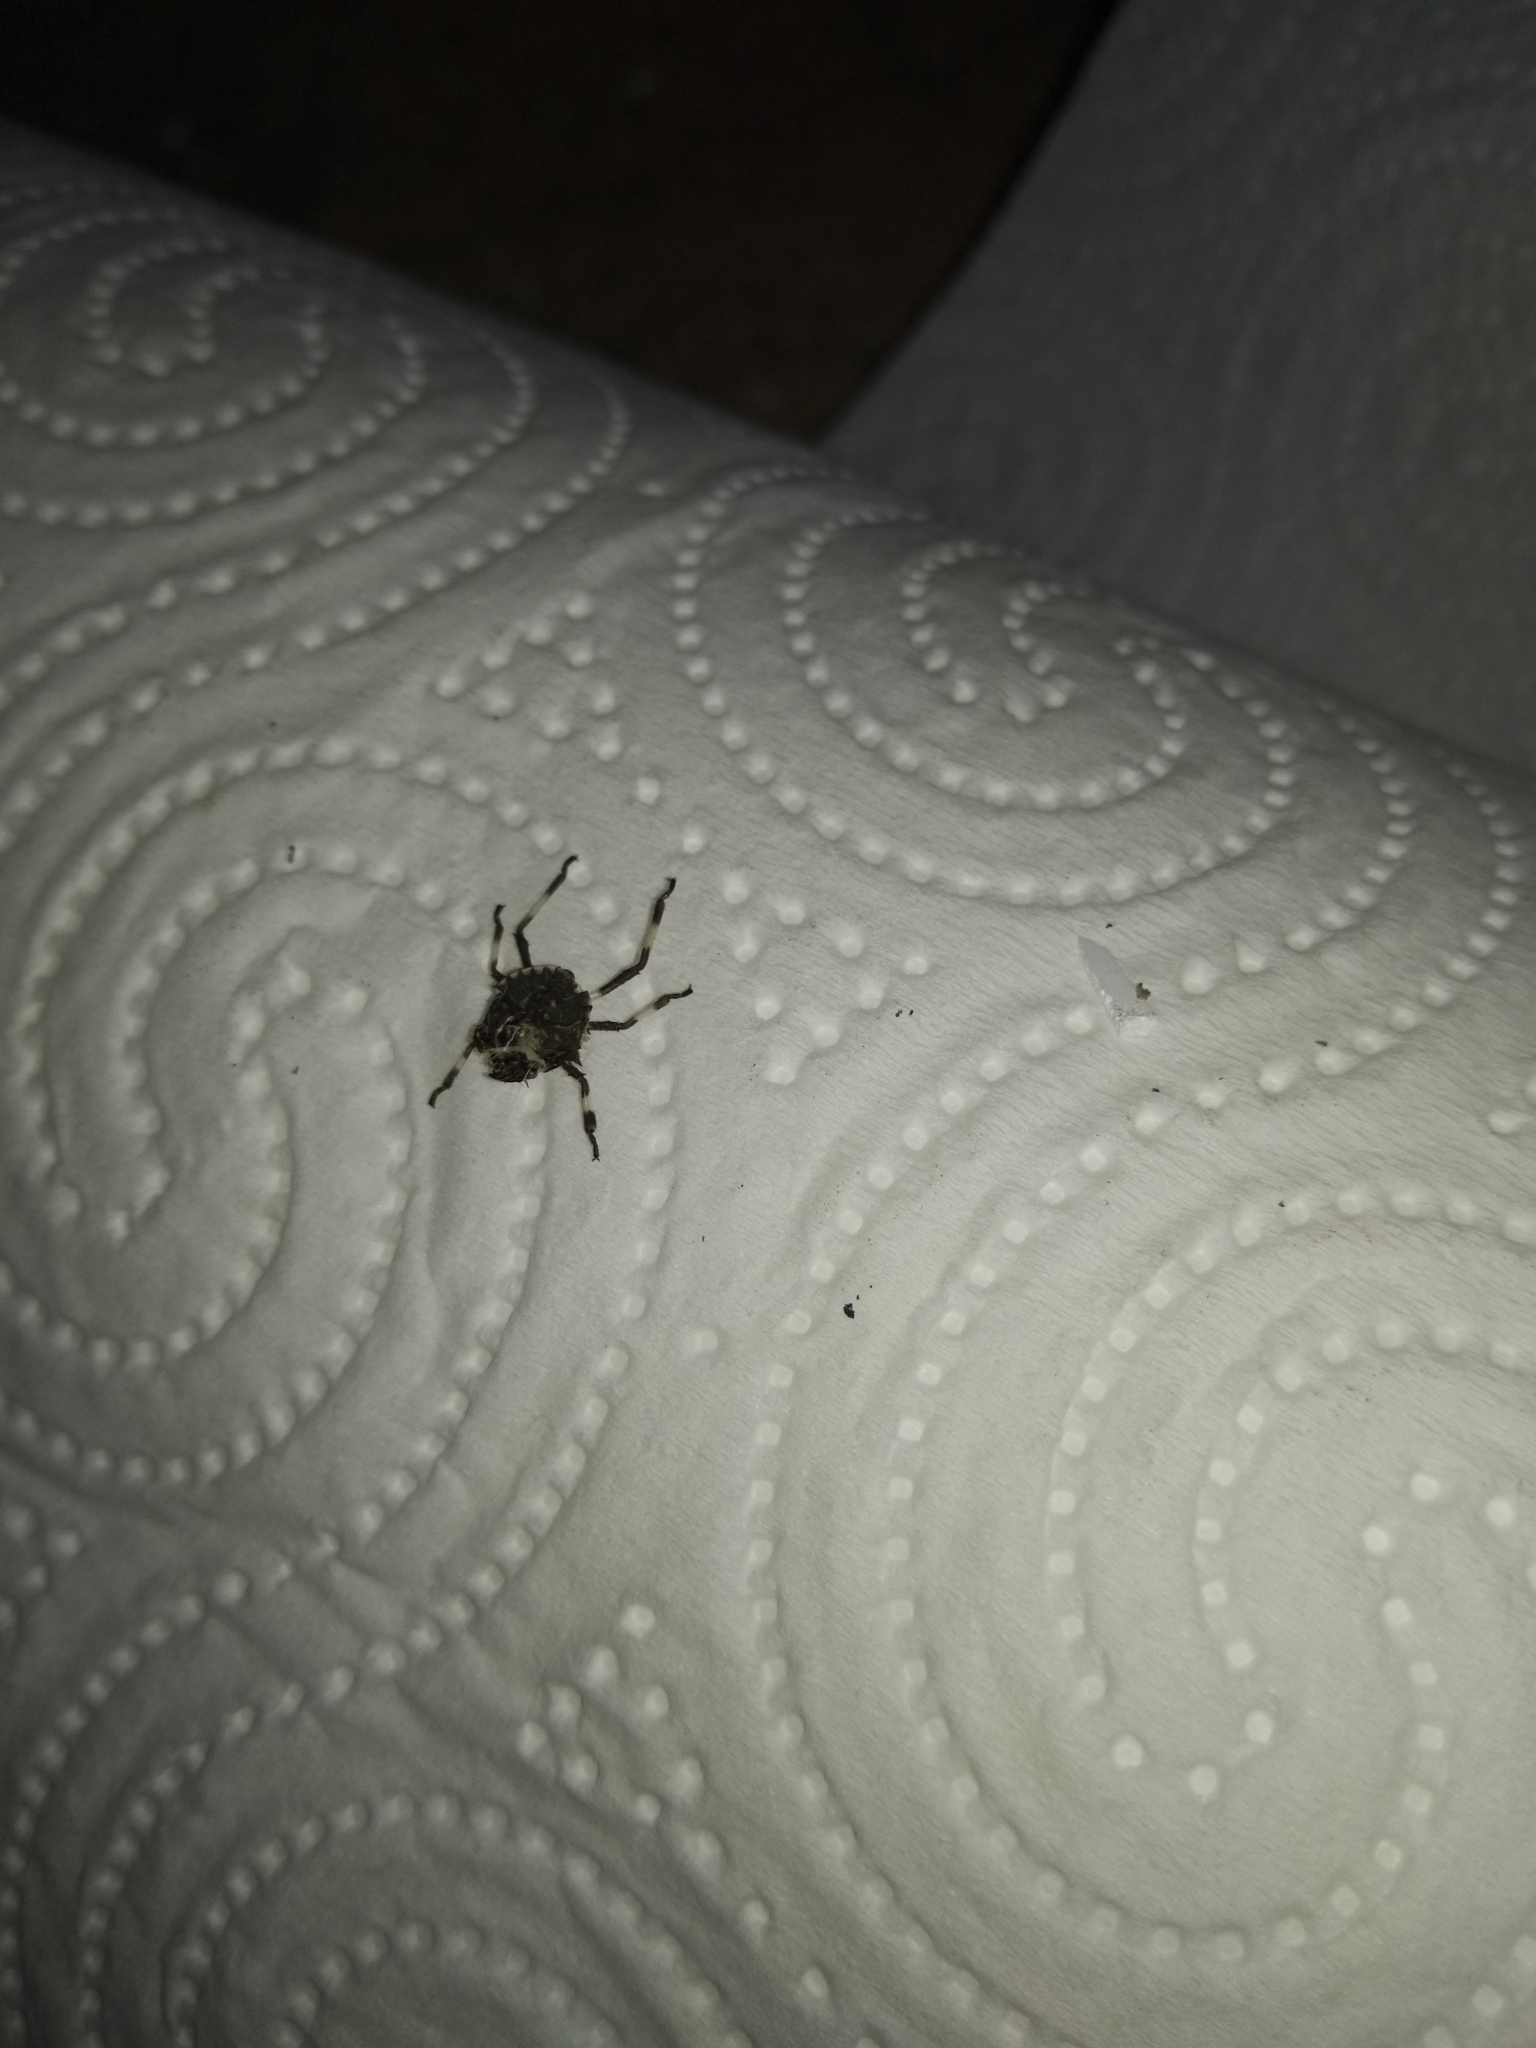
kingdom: Animalia
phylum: Arthropoda
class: Insecta
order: Hemiptera
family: Pentatomidae
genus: Halyomorpha
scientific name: Halyomorpha halys
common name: Brown marmorated stink bug
